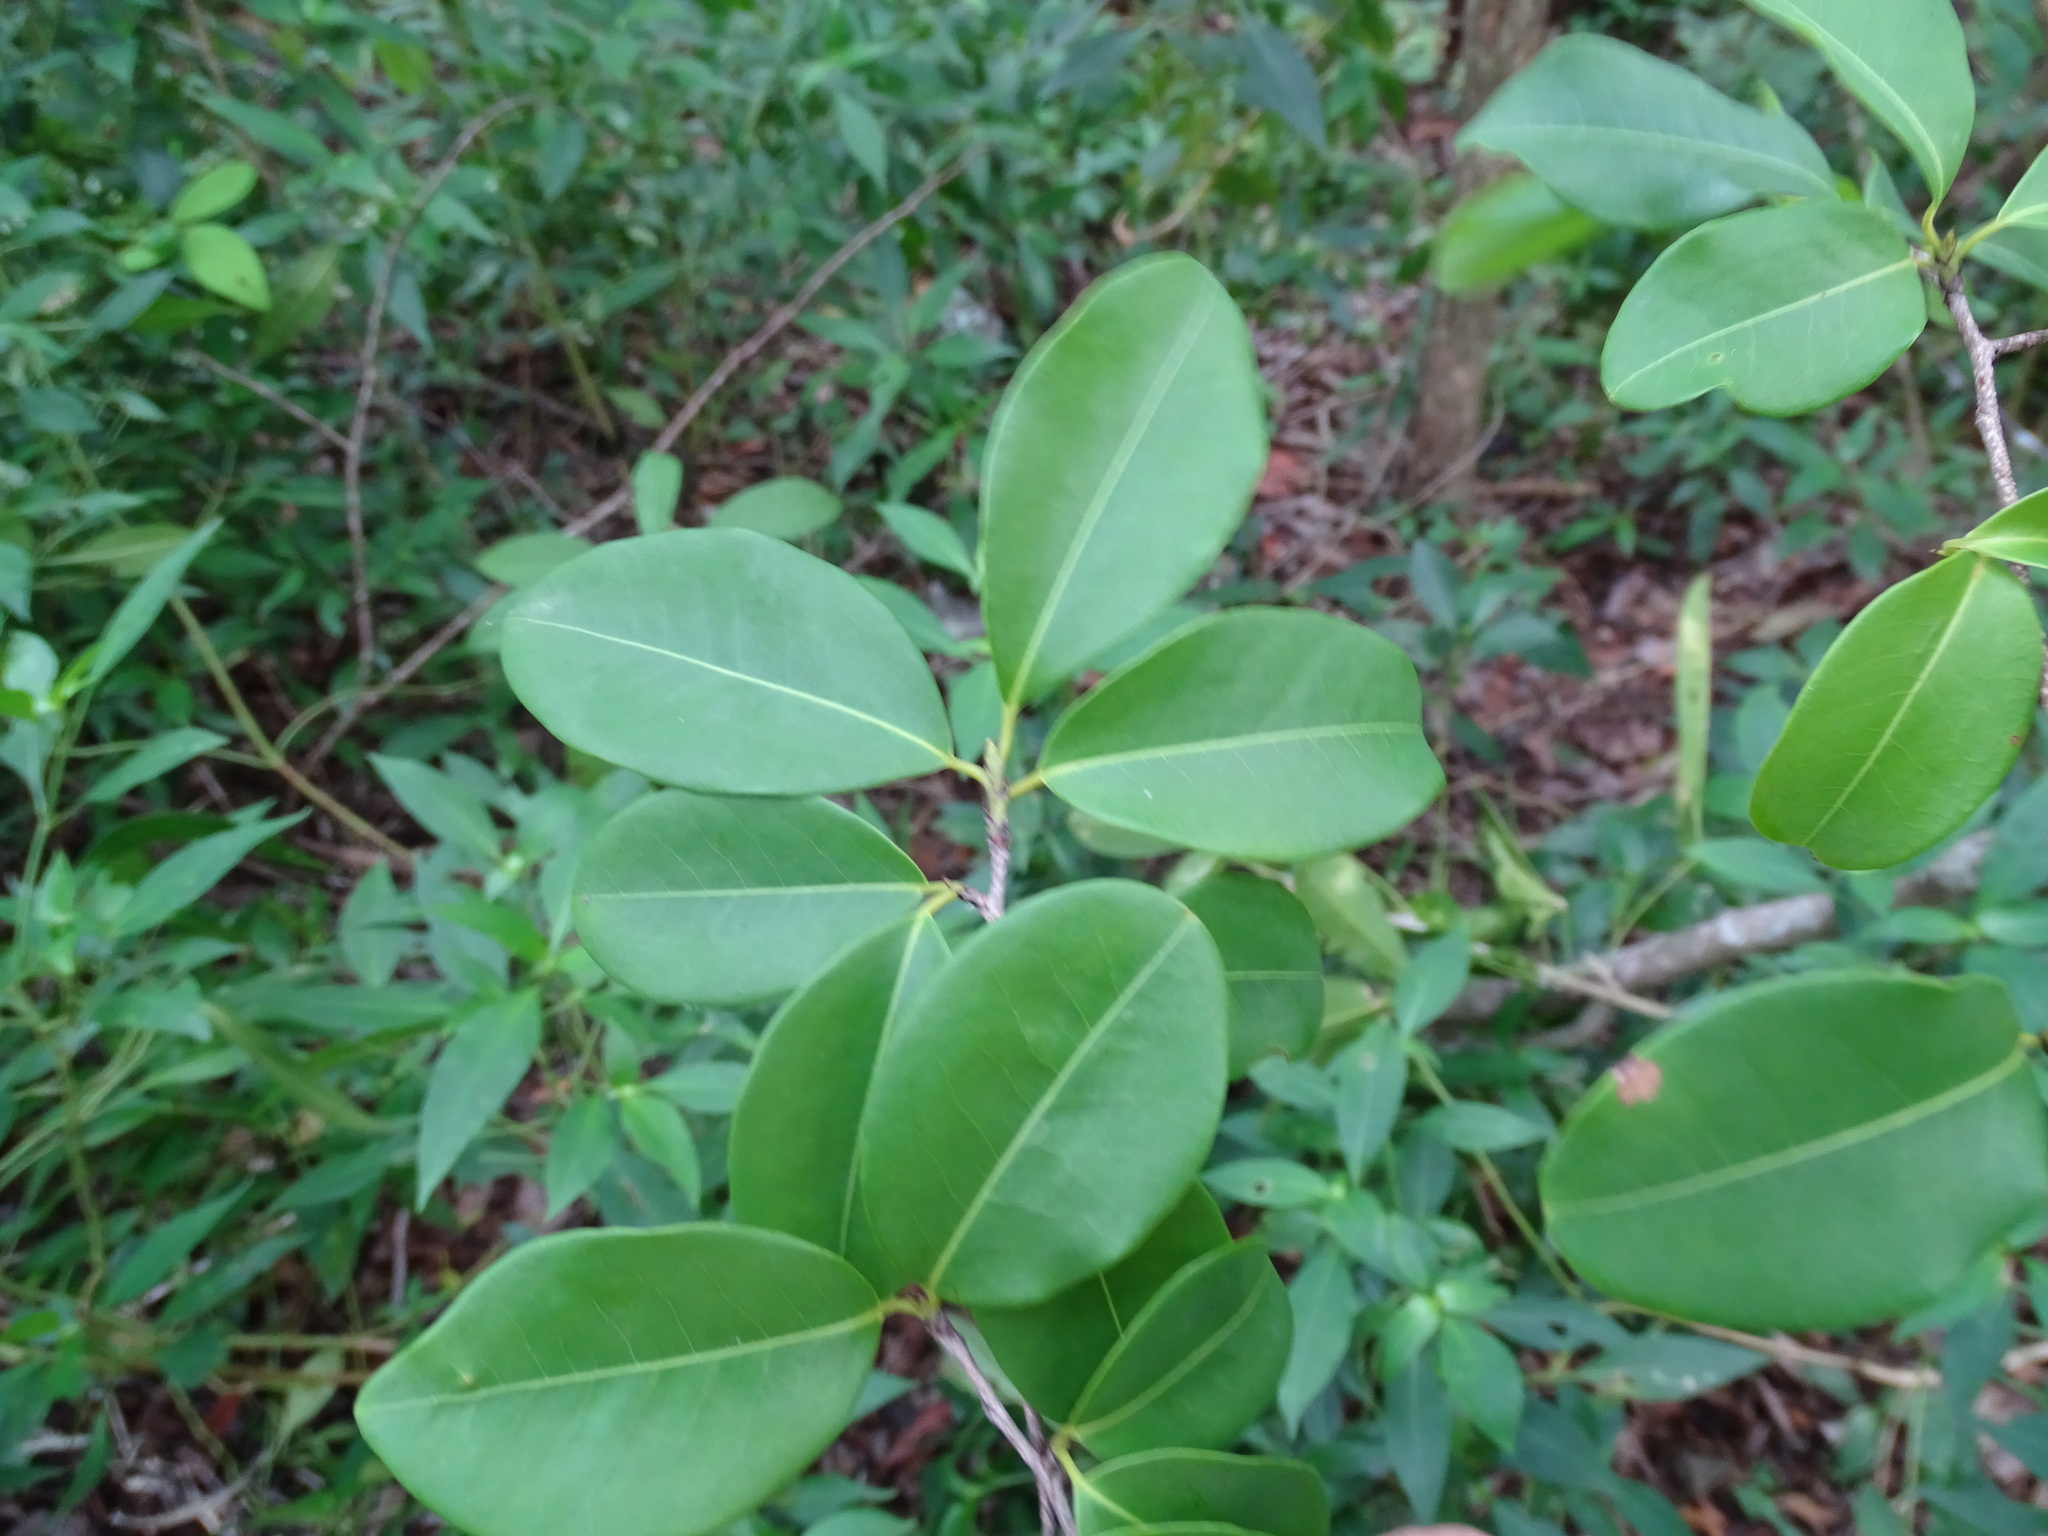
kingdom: Plantae
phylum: Tracheophyta
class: Magnoliopsida
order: Malpighiales
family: Erythroxylaceae
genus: Erythroxylum
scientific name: Erythroxylum areolatum
